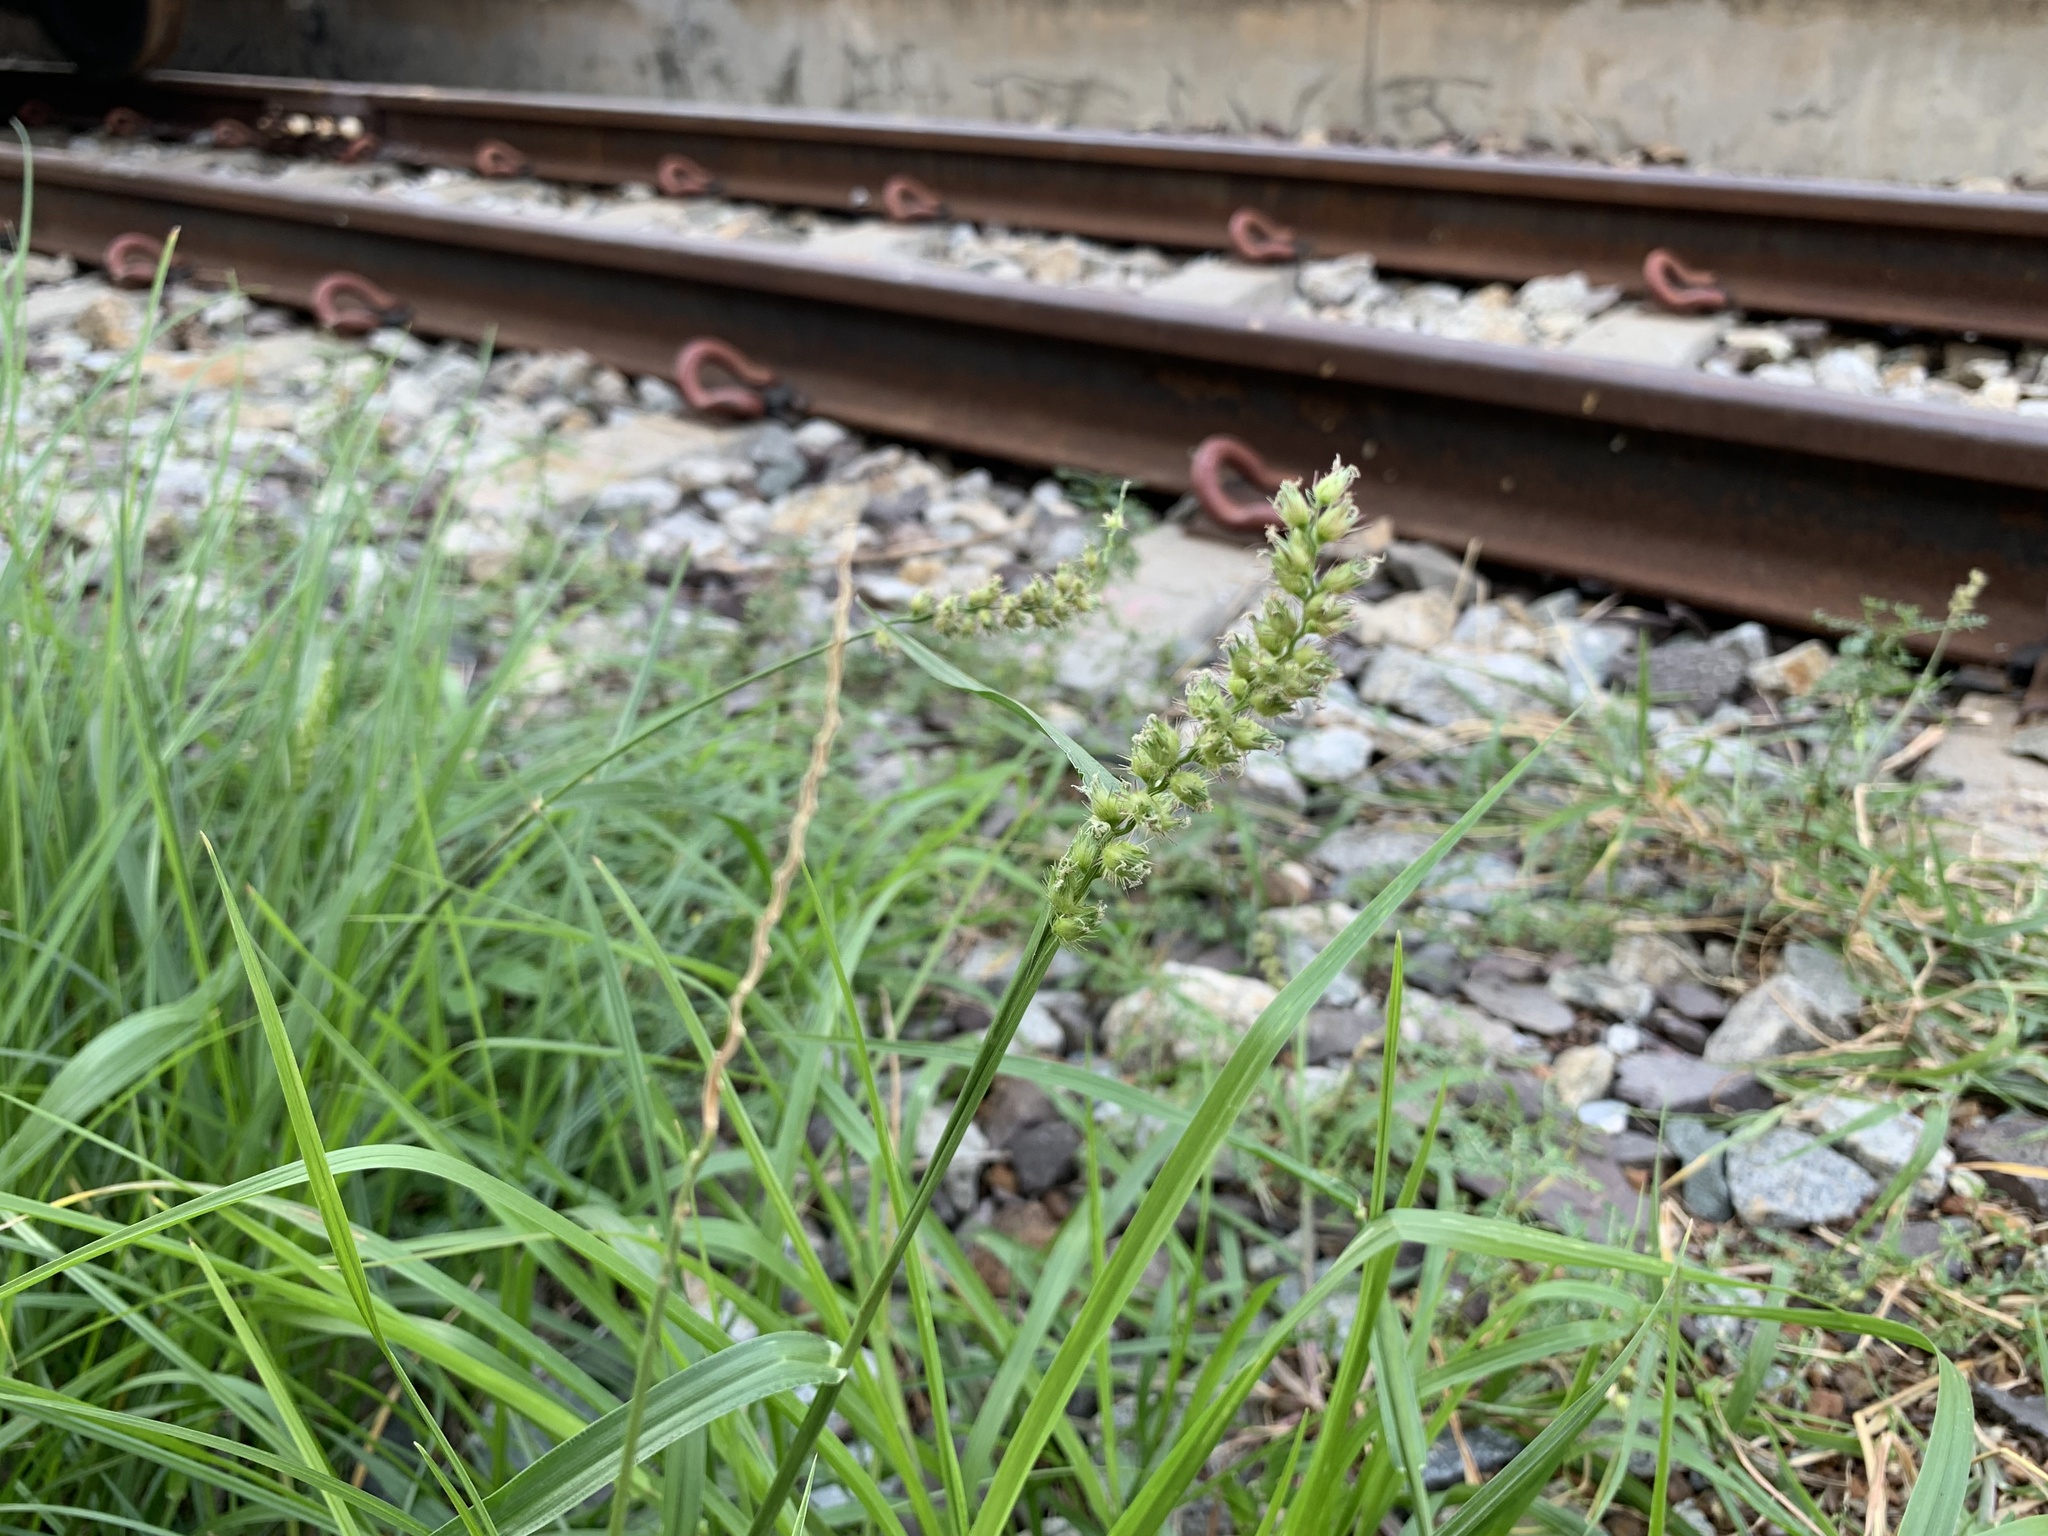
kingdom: Plantae
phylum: Tracheophyta
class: Liliopsida
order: Poales
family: Poaceae
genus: Cenchrus
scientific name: Cenchrus echinatus
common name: Southern sandbur
